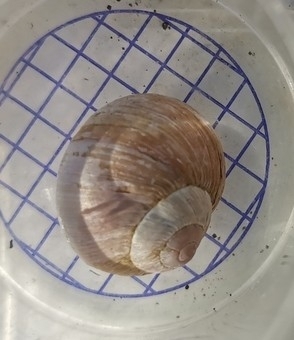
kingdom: Animalia
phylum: Mollusca
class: Gastropoda
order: Stylommatophora
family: Helicidae
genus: Helix
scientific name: Helix melanostoma
